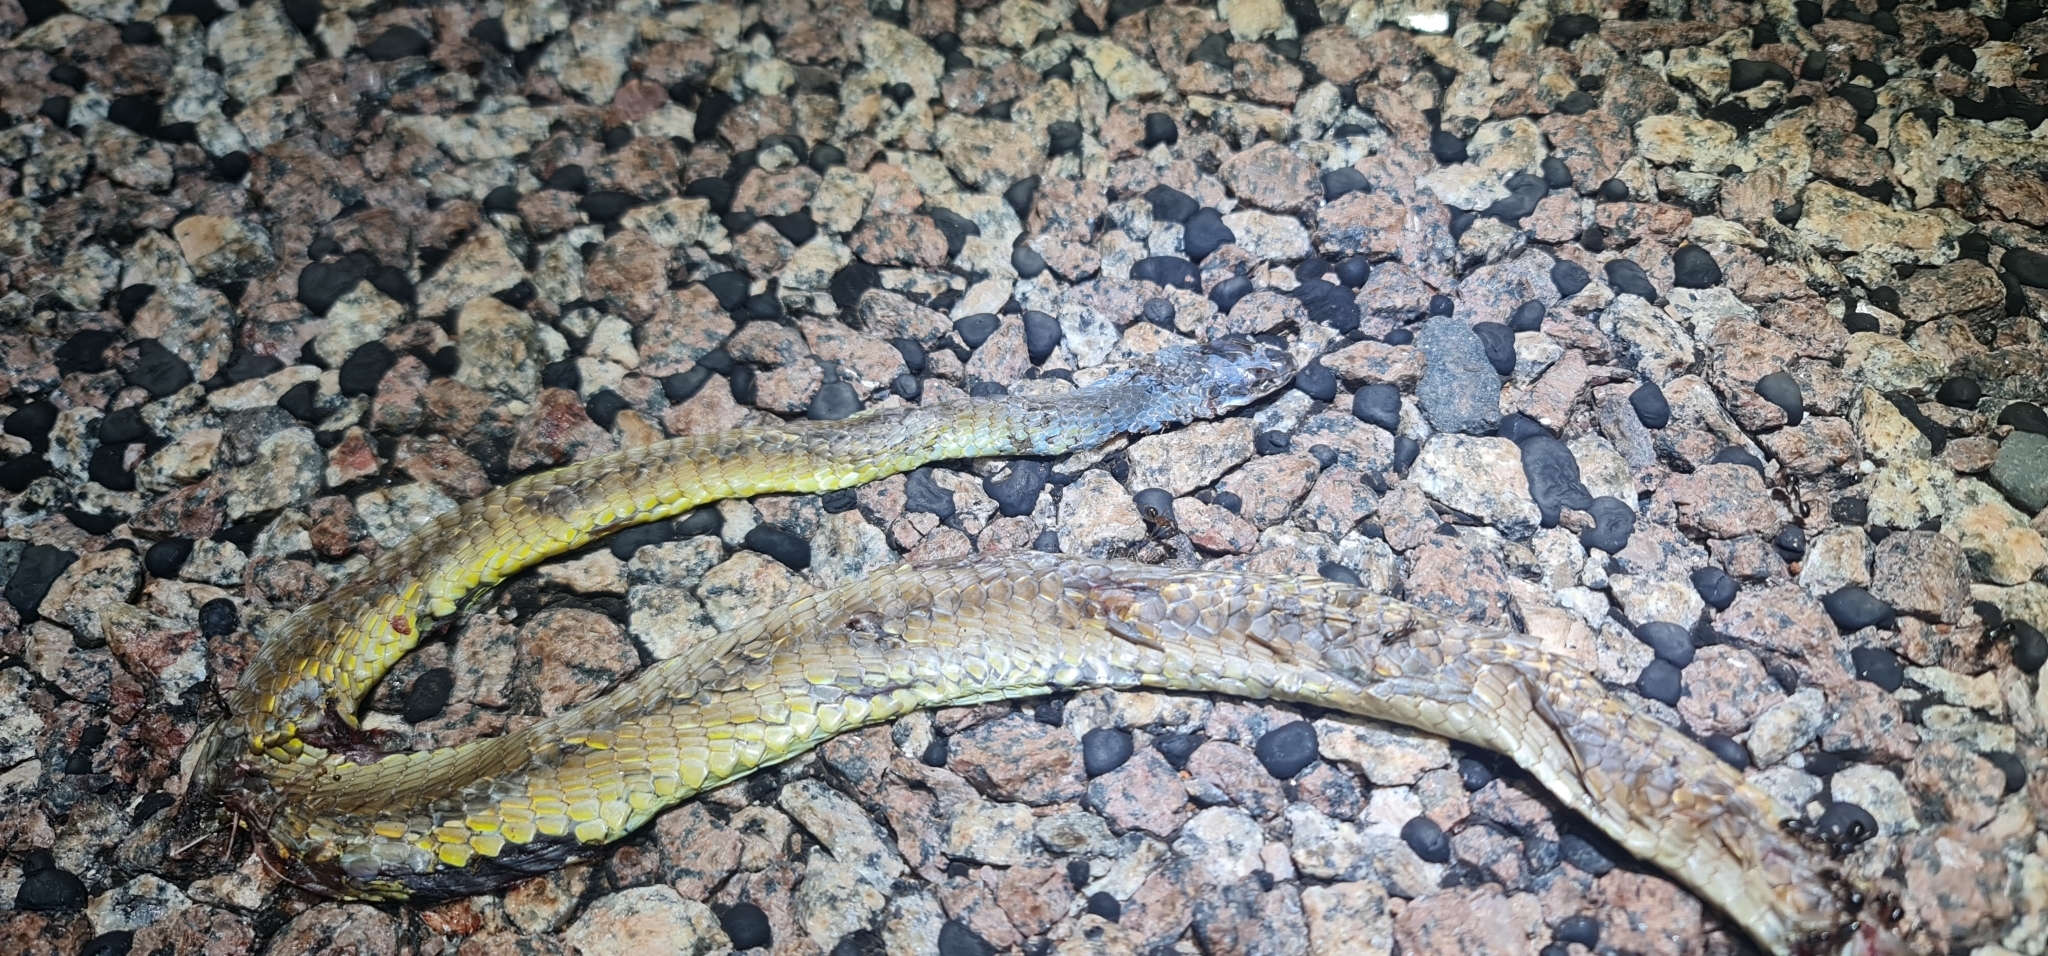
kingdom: Animalia
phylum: Chordata
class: Squamata
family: Colubridae
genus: Dendrelaphis
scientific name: Dendrelaphis punctulatus
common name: Common tree snake
